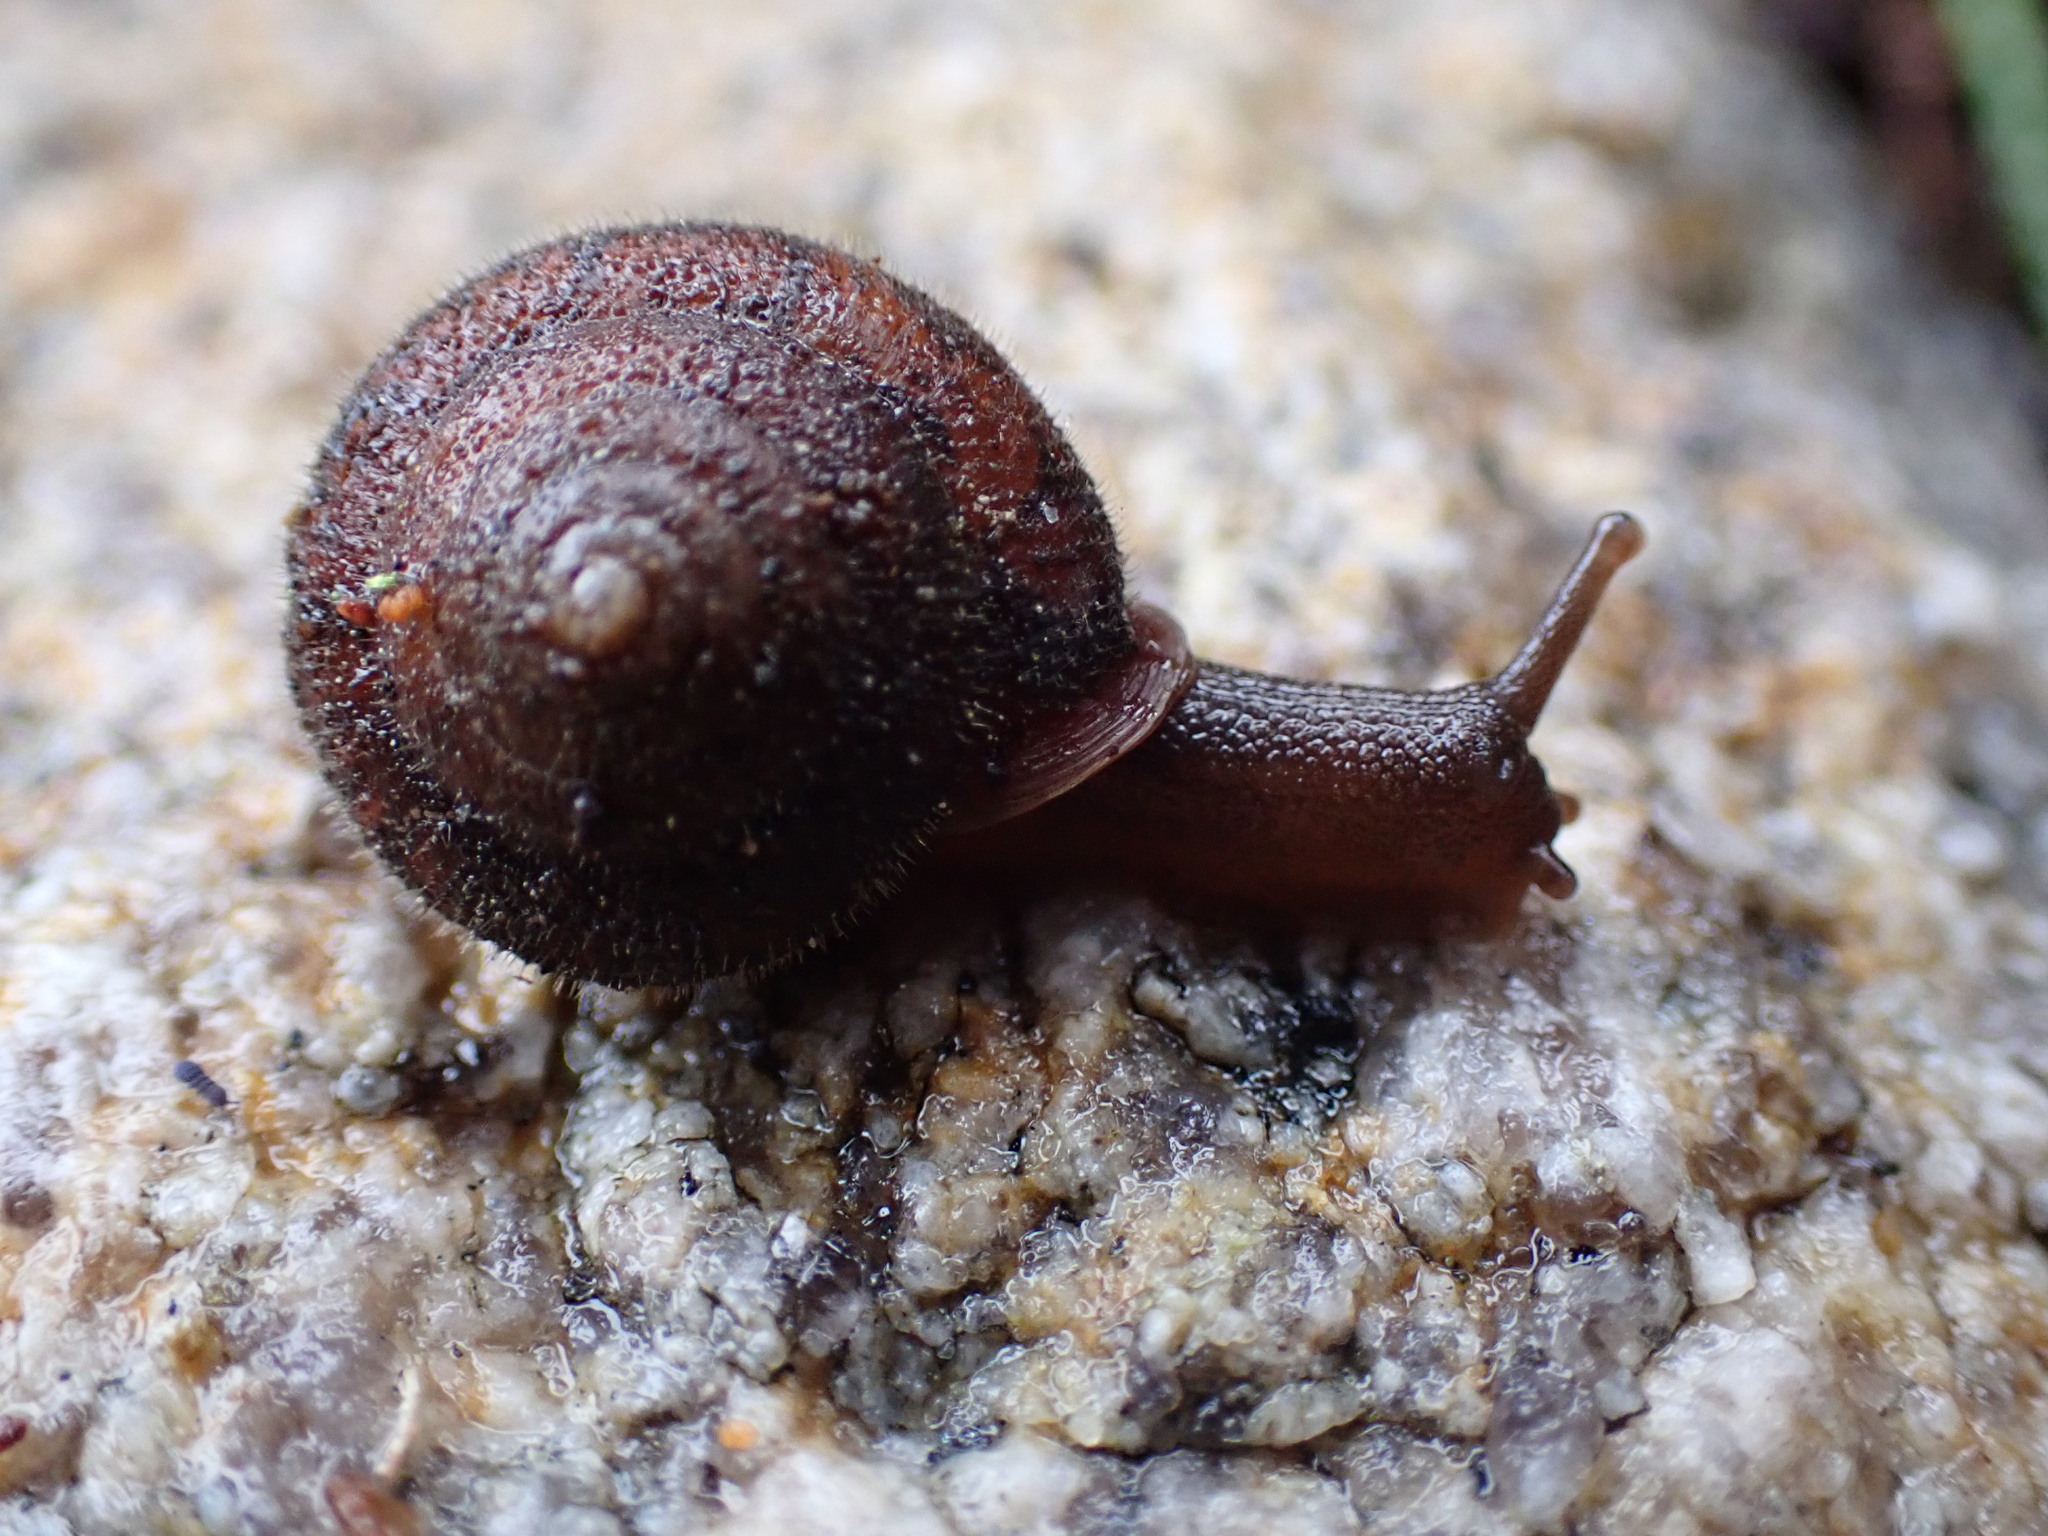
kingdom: Animalia
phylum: Mollusca
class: Gastropoda
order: Stylommatophora
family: Polygyridae
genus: Vespericola
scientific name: Vespericola columbianus
